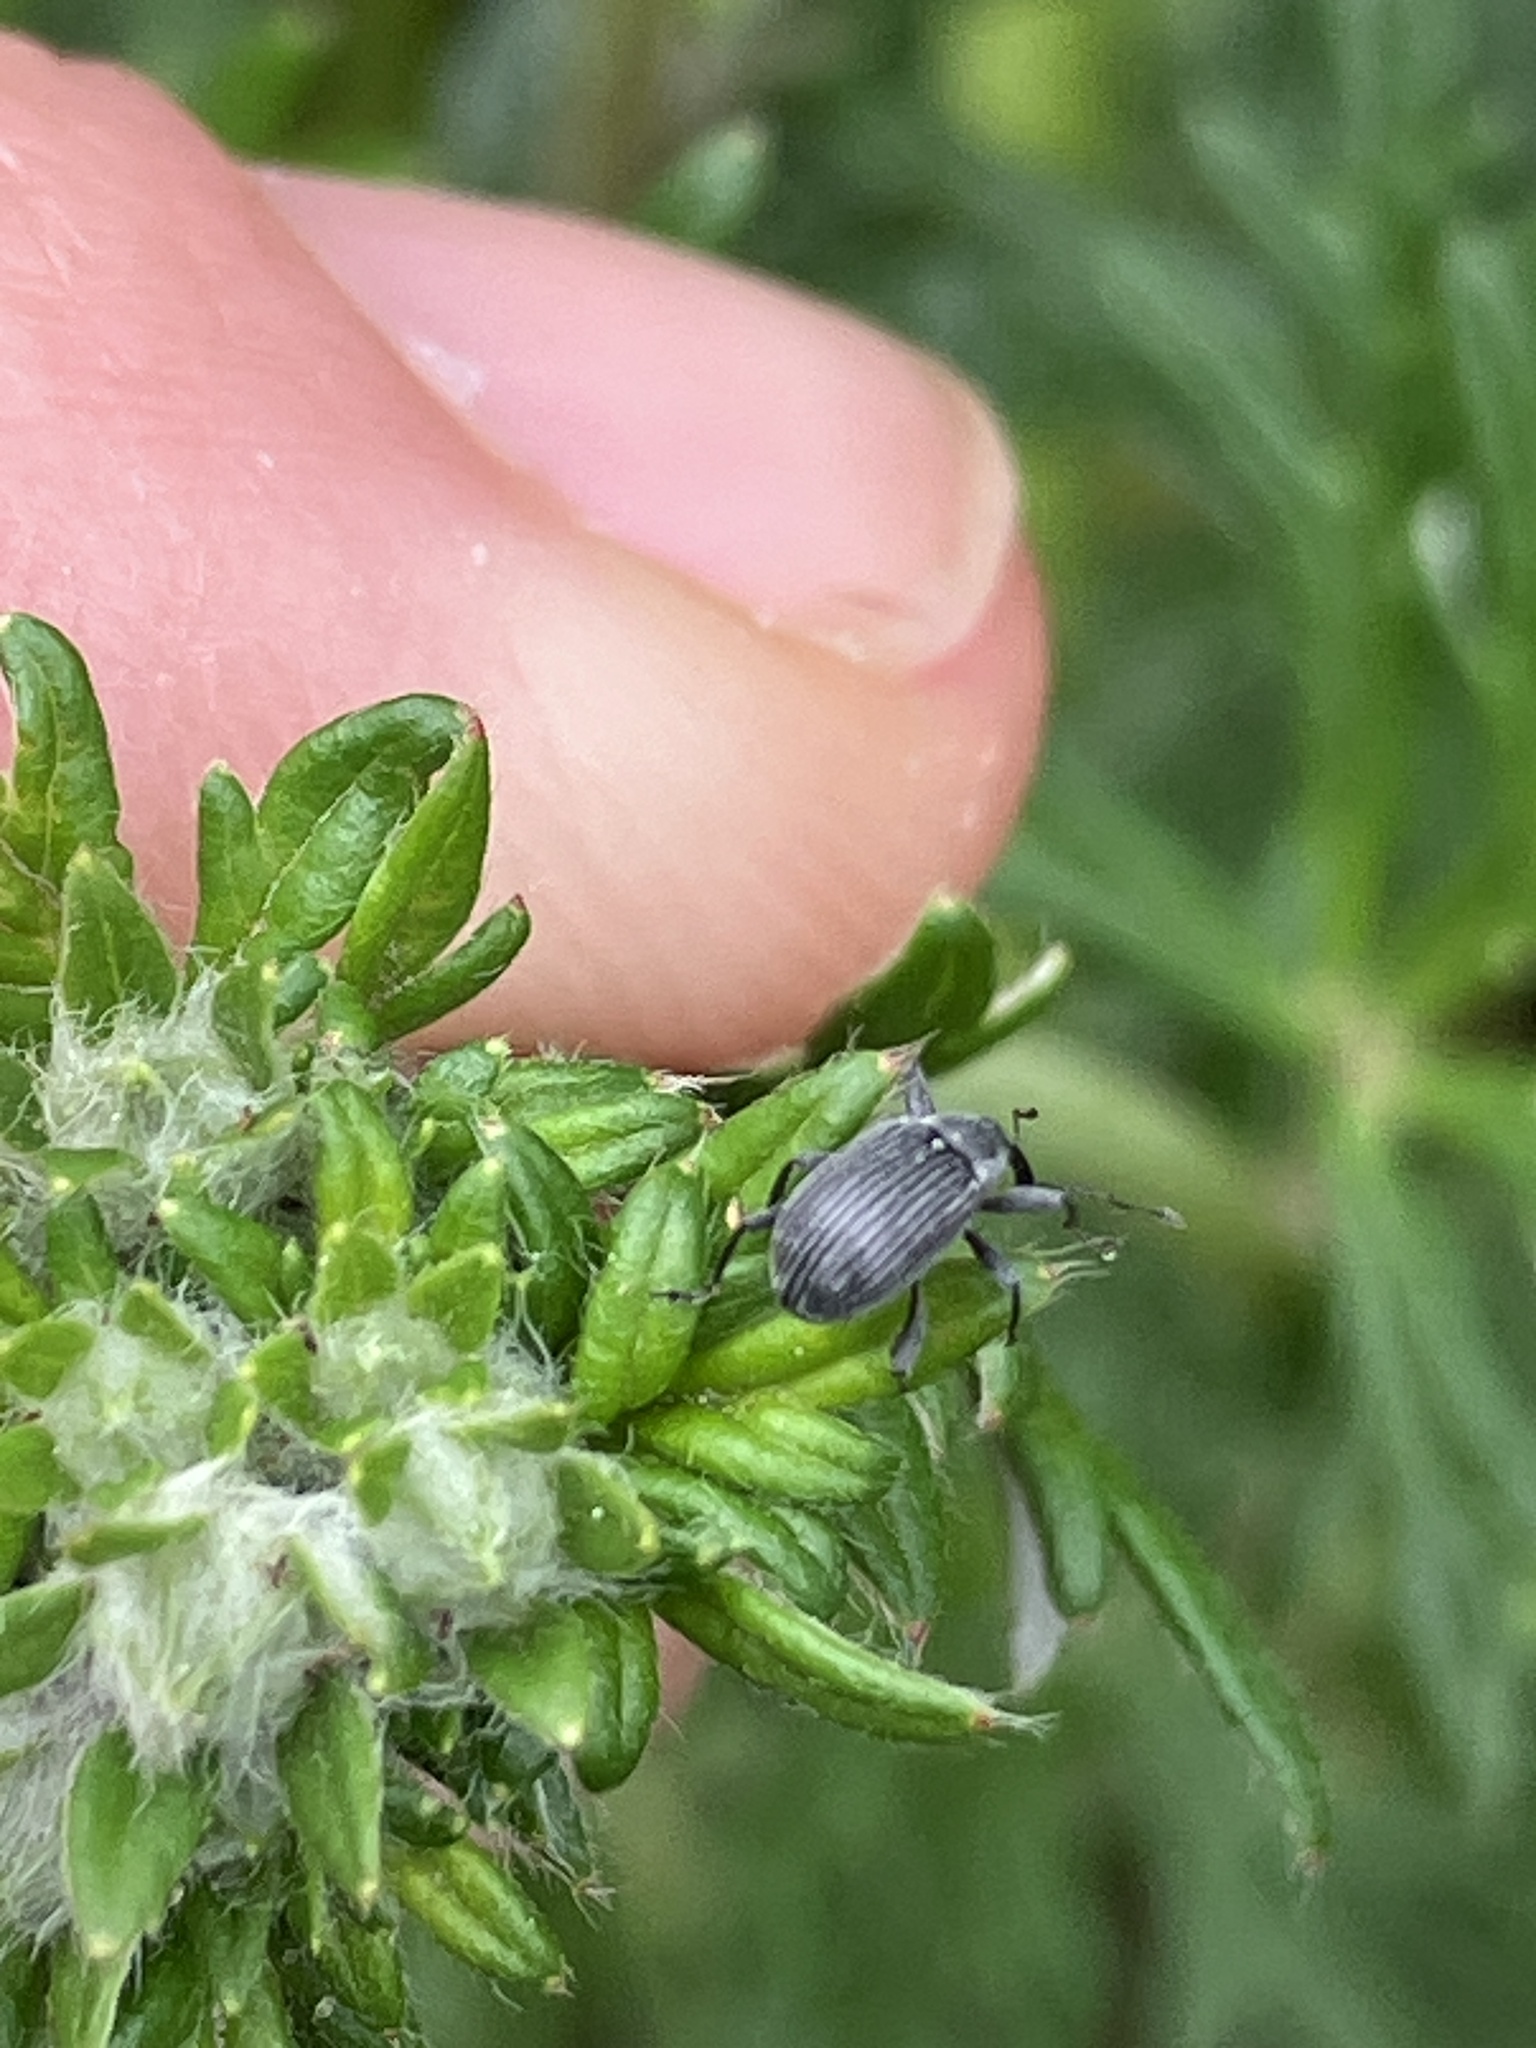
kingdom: Animalia
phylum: Arthropoda
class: Insecta
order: Coleoptera
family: Curculionidae
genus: Anthonomus
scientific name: Anthonomus rubi
